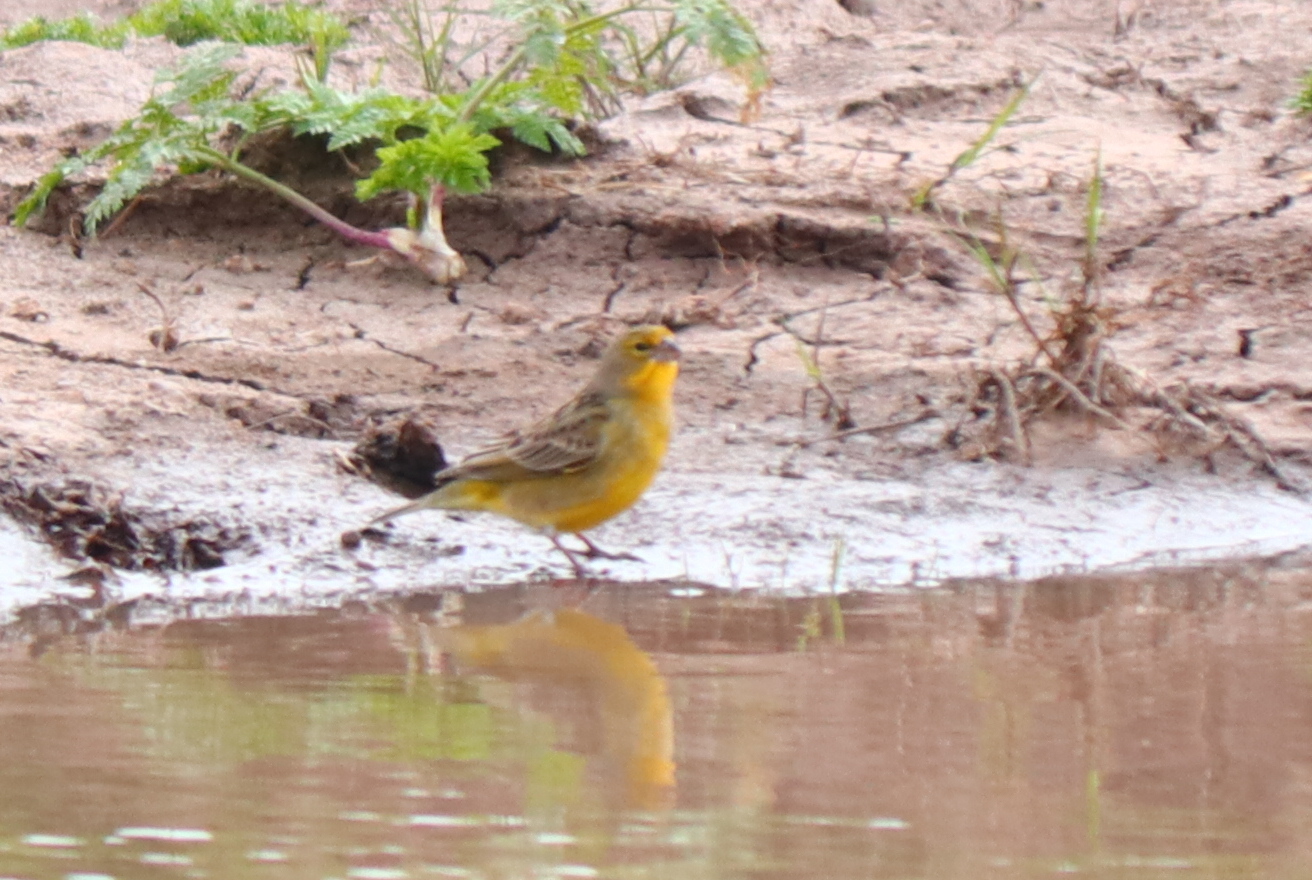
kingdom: Animalia
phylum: Chordata
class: Aves
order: Passeriformes
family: Thraupidae
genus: Sicalis
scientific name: Sicalis luteola
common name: Grassland yellow-finch
